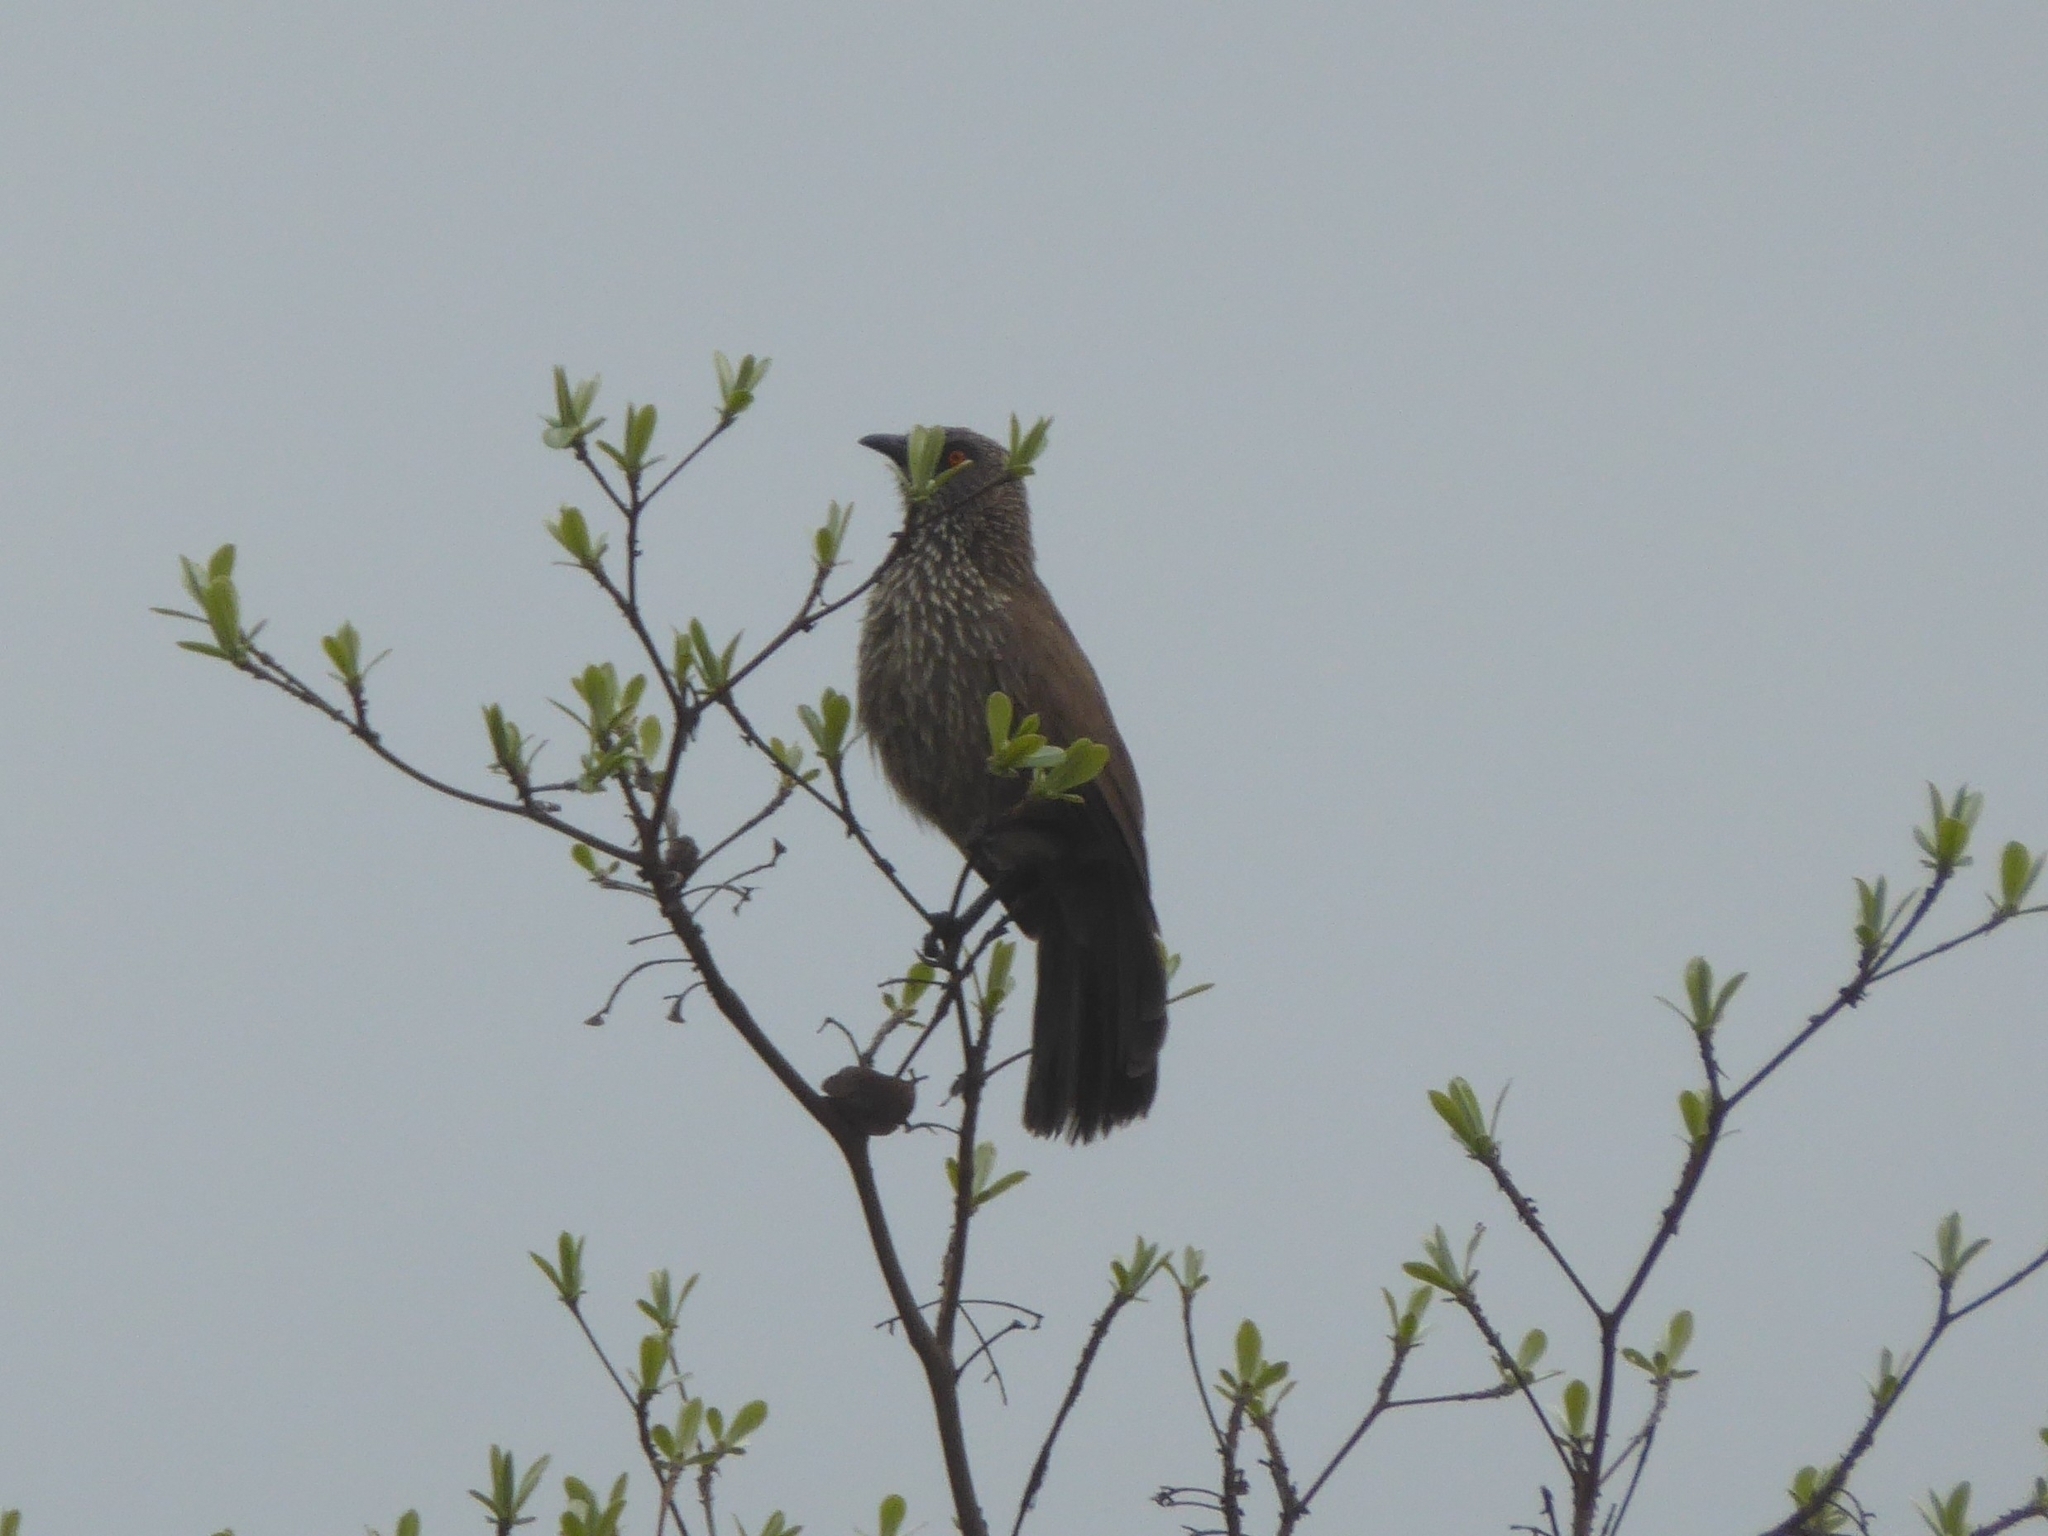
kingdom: Animalia
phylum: Chordata
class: Aves
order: Passeriformes
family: Leiothrichidae
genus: Turdoides
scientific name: Turdoides jardineii
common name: Arrow-marked babbler
